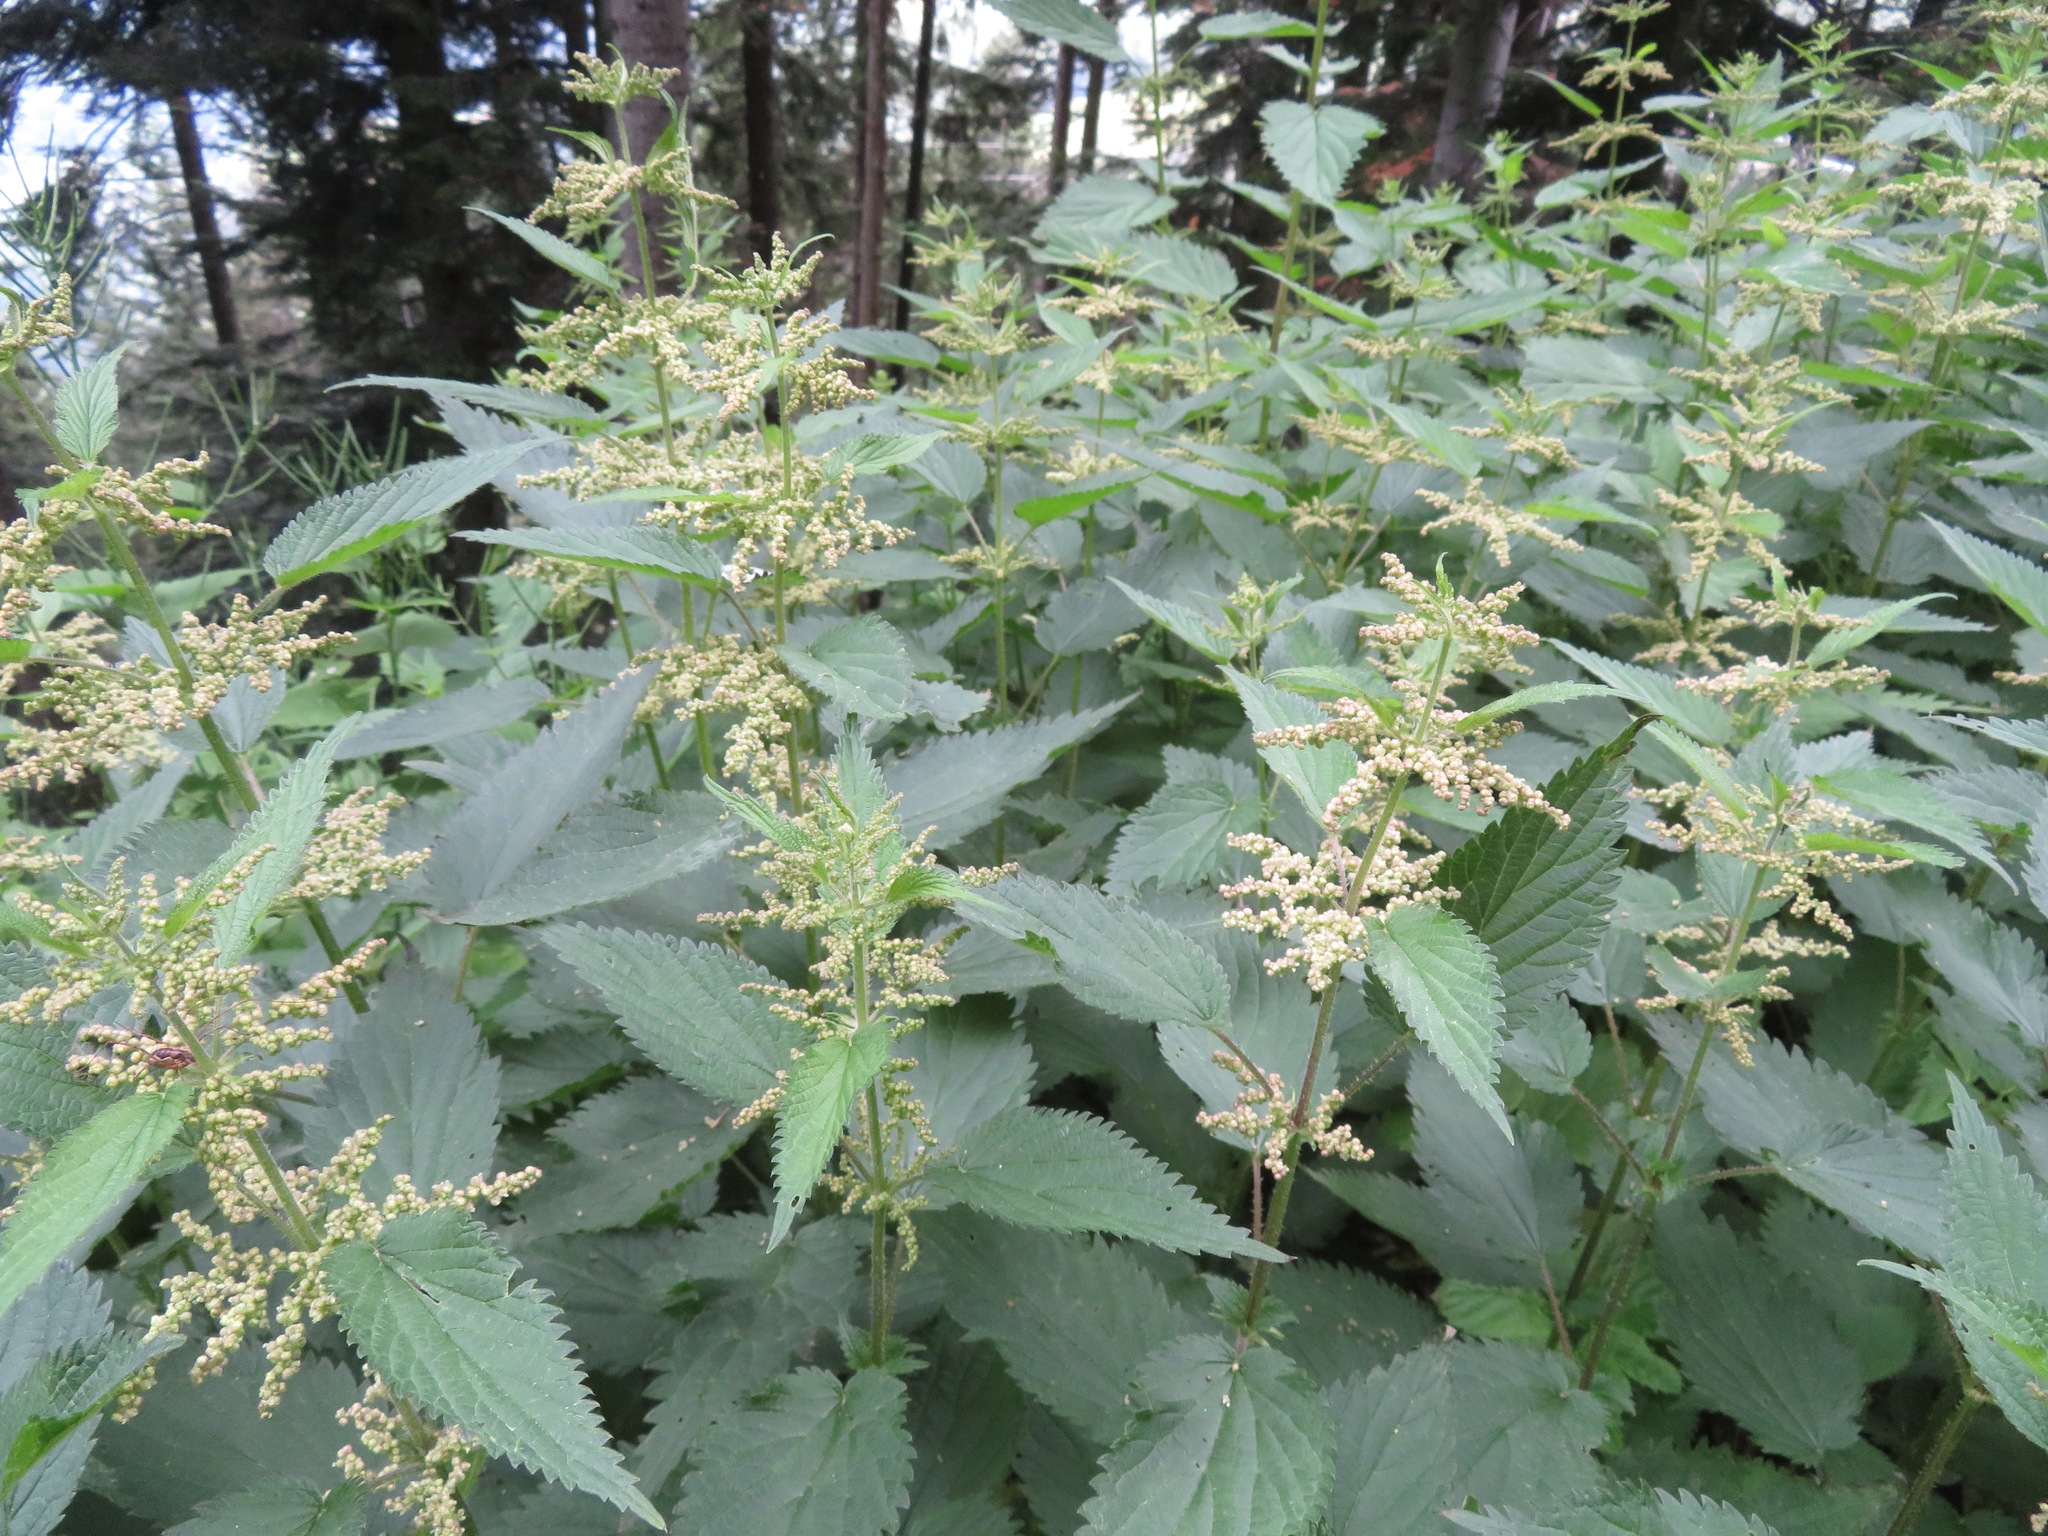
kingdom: Plantae
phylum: Tracheophyta
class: Magnoliopsida
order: Rosales
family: Urticaceae
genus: Urtica
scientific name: Urtica dioica
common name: Common nettle
